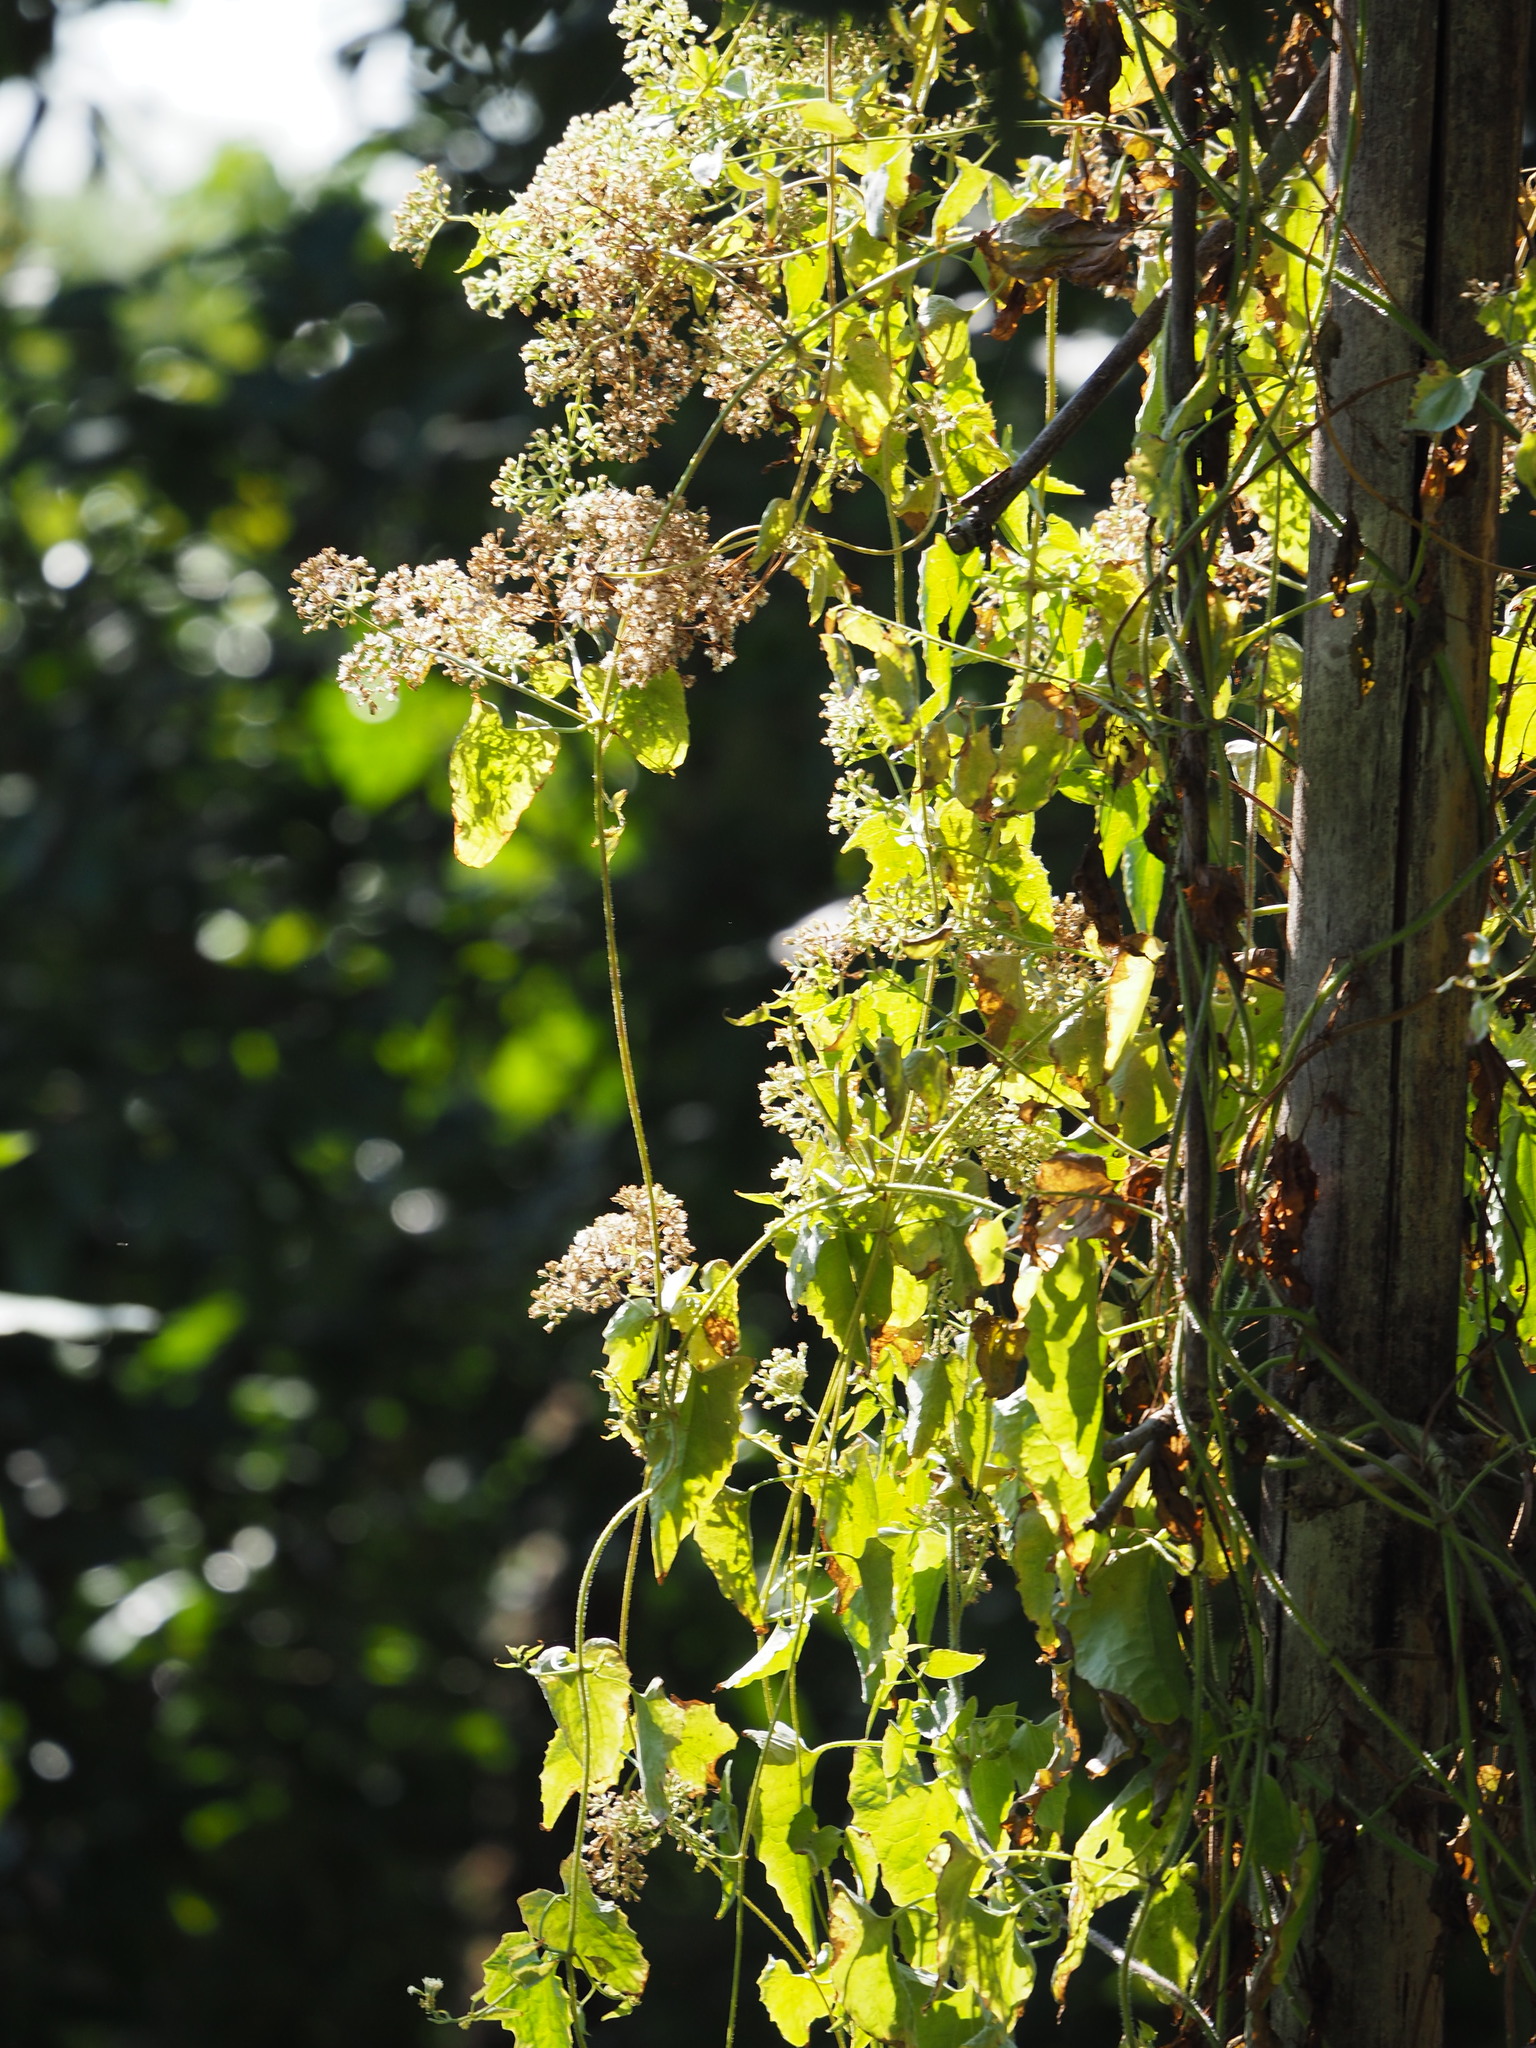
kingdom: Plantae
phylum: Tracheophyta
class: Magnoliopsida
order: Asterales
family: Asteraceae
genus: Mikania
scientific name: Mikania micrantha
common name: Mile-a-minute
